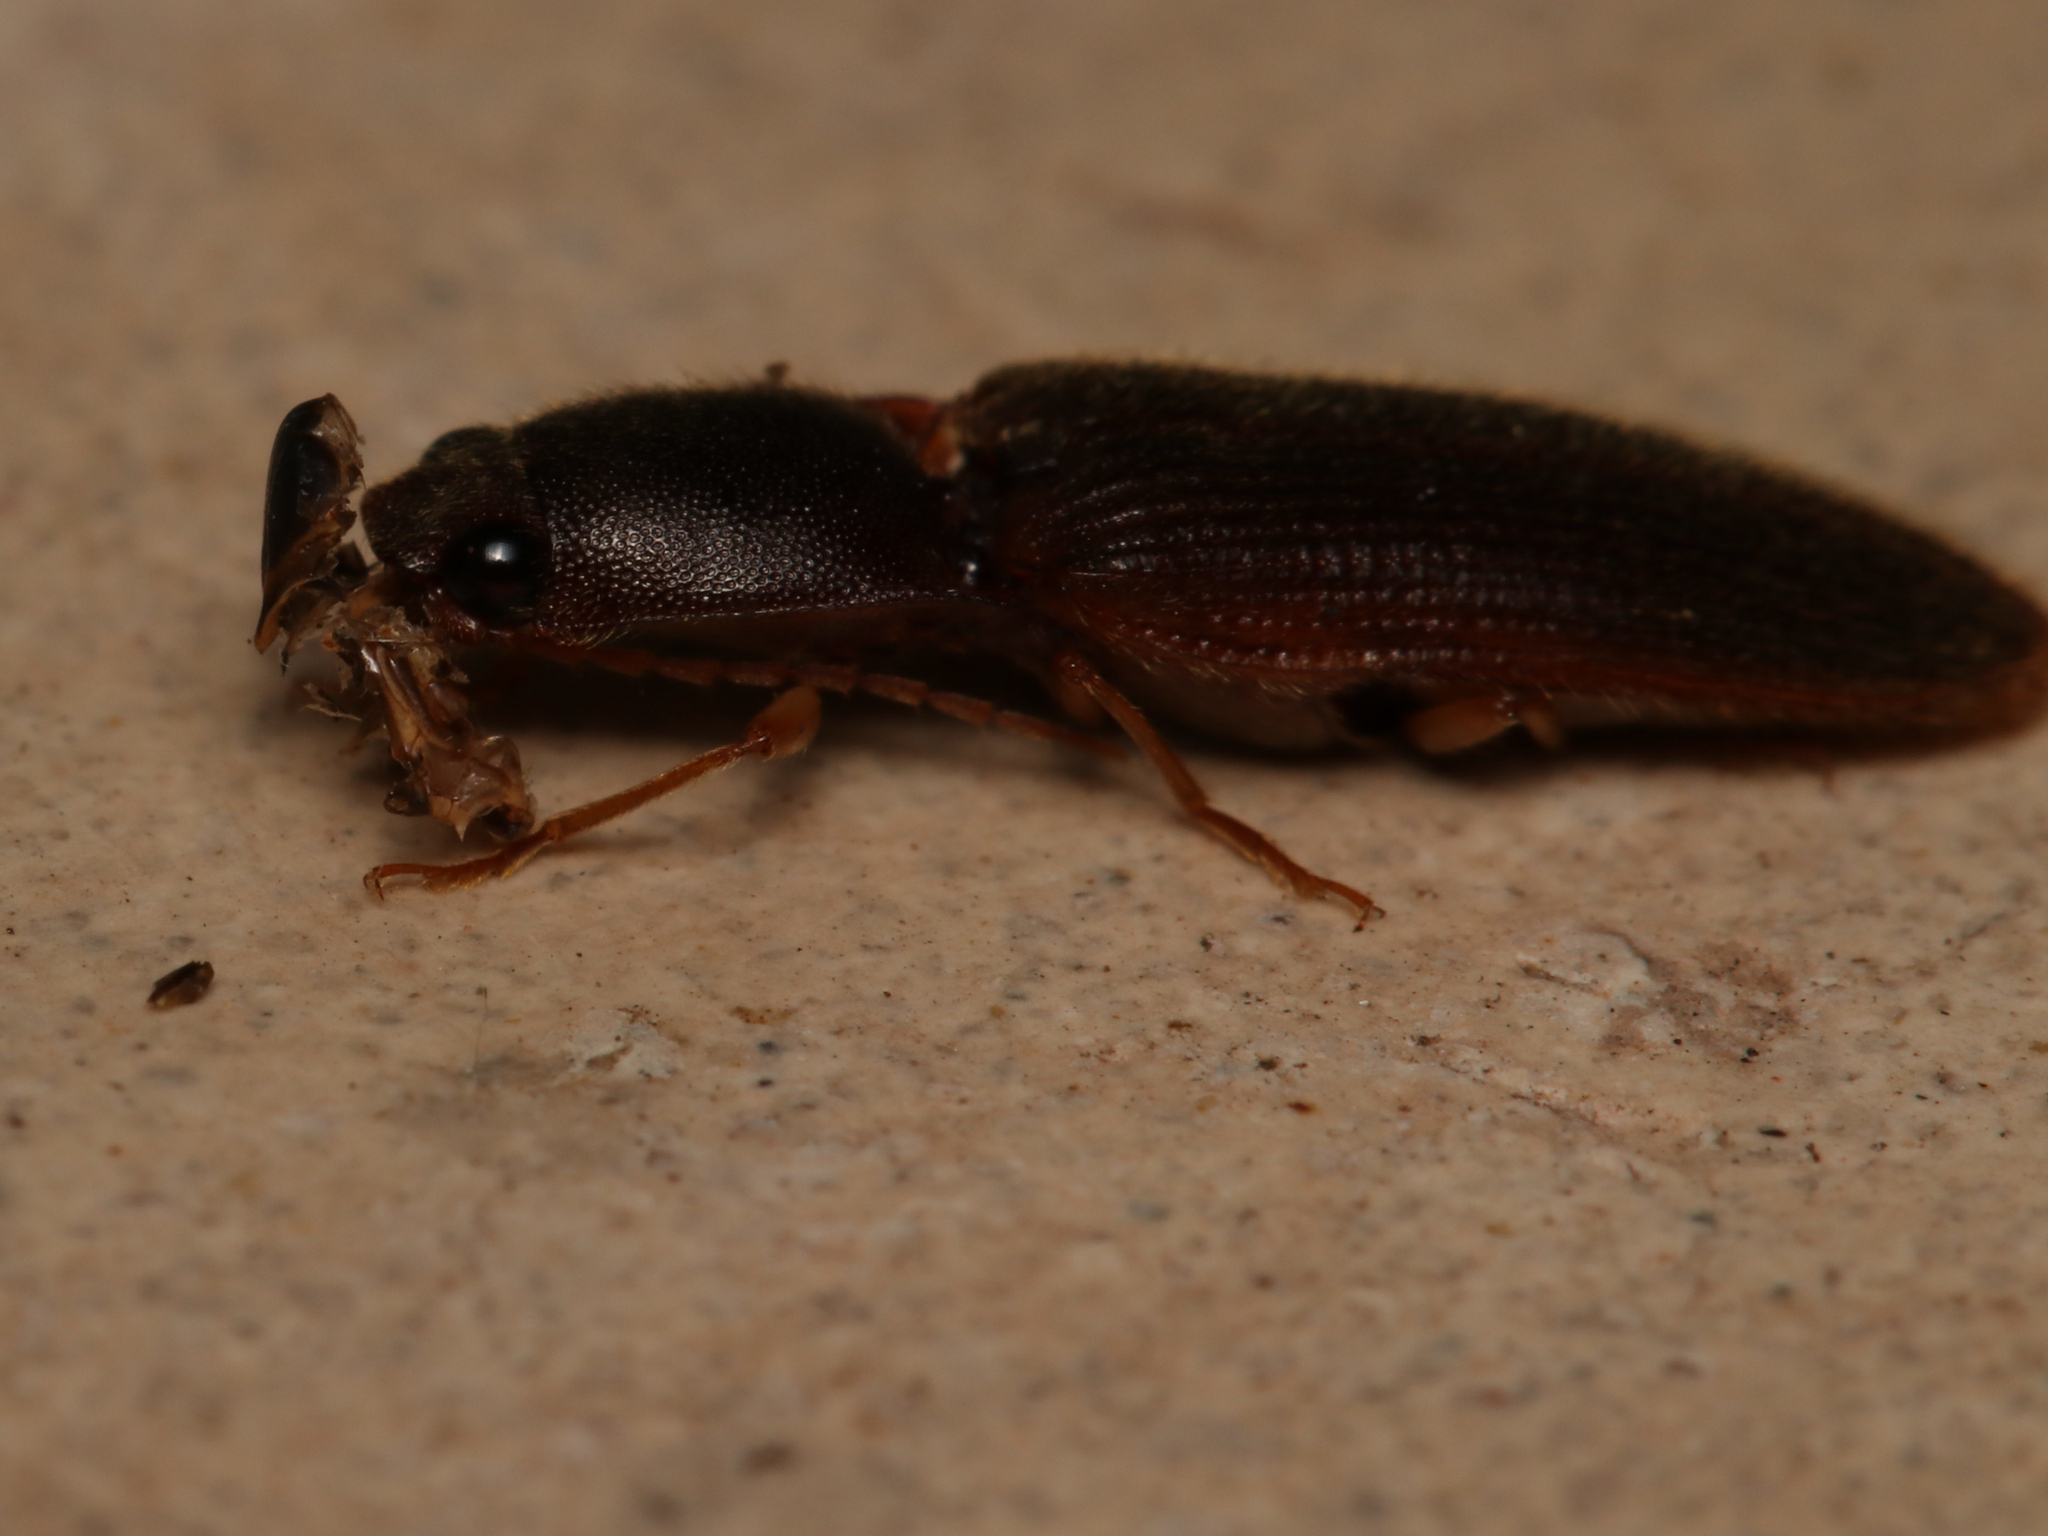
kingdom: Animalia
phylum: Arthropoda
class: Insecta
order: Coleoptera
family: Elateridae
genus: Athous
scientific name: Athous cucullatus
